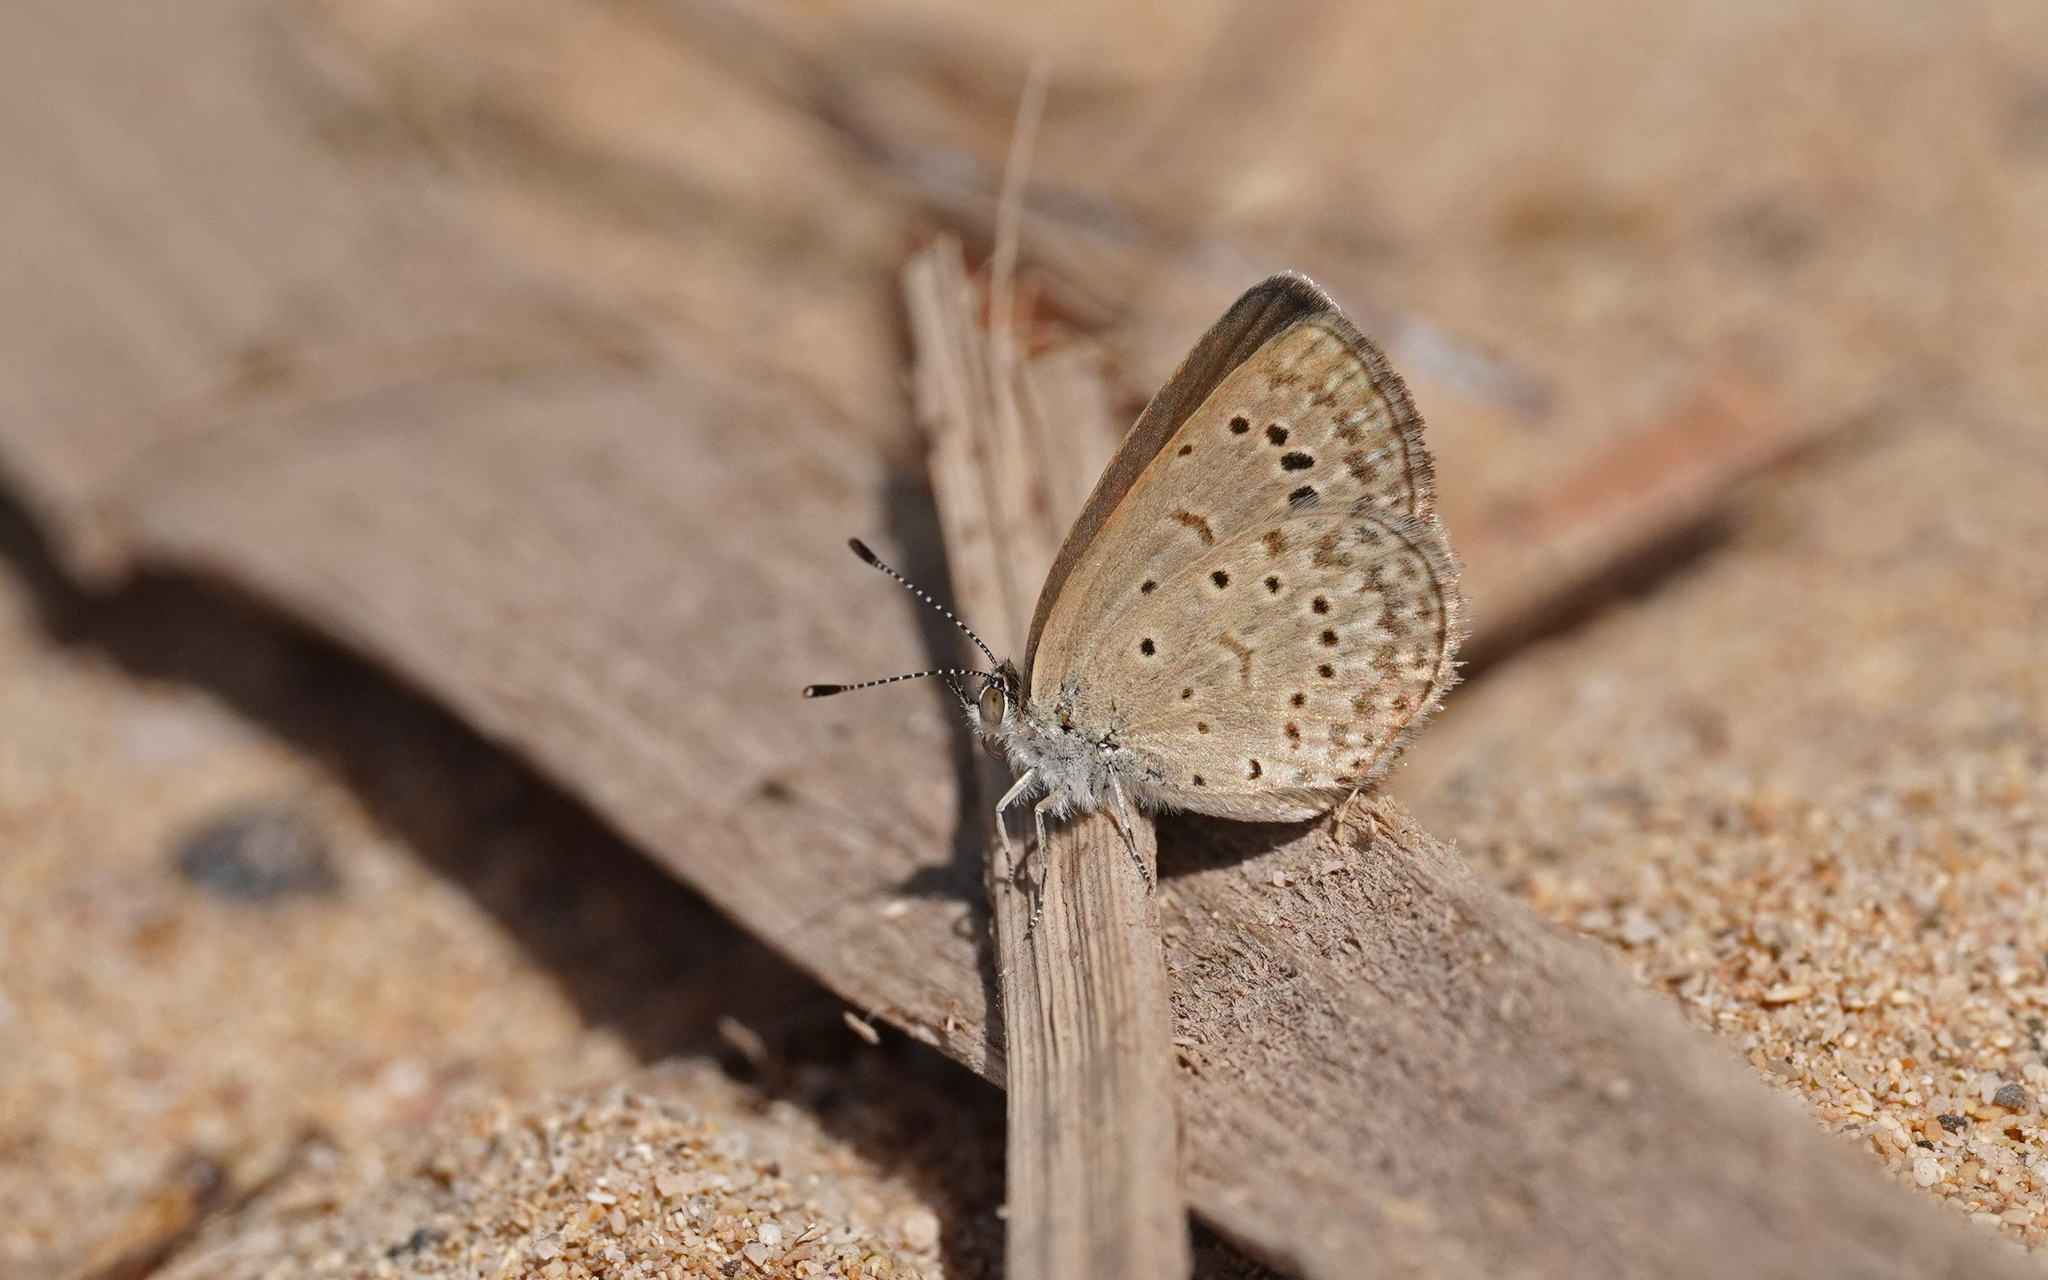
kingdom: Animalia
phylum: Arthropoda
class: Insecta
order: Lepidoptera
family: Lycaenidae
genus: Zizeeria
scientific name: Zizeeria knysna
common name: African grass blue
